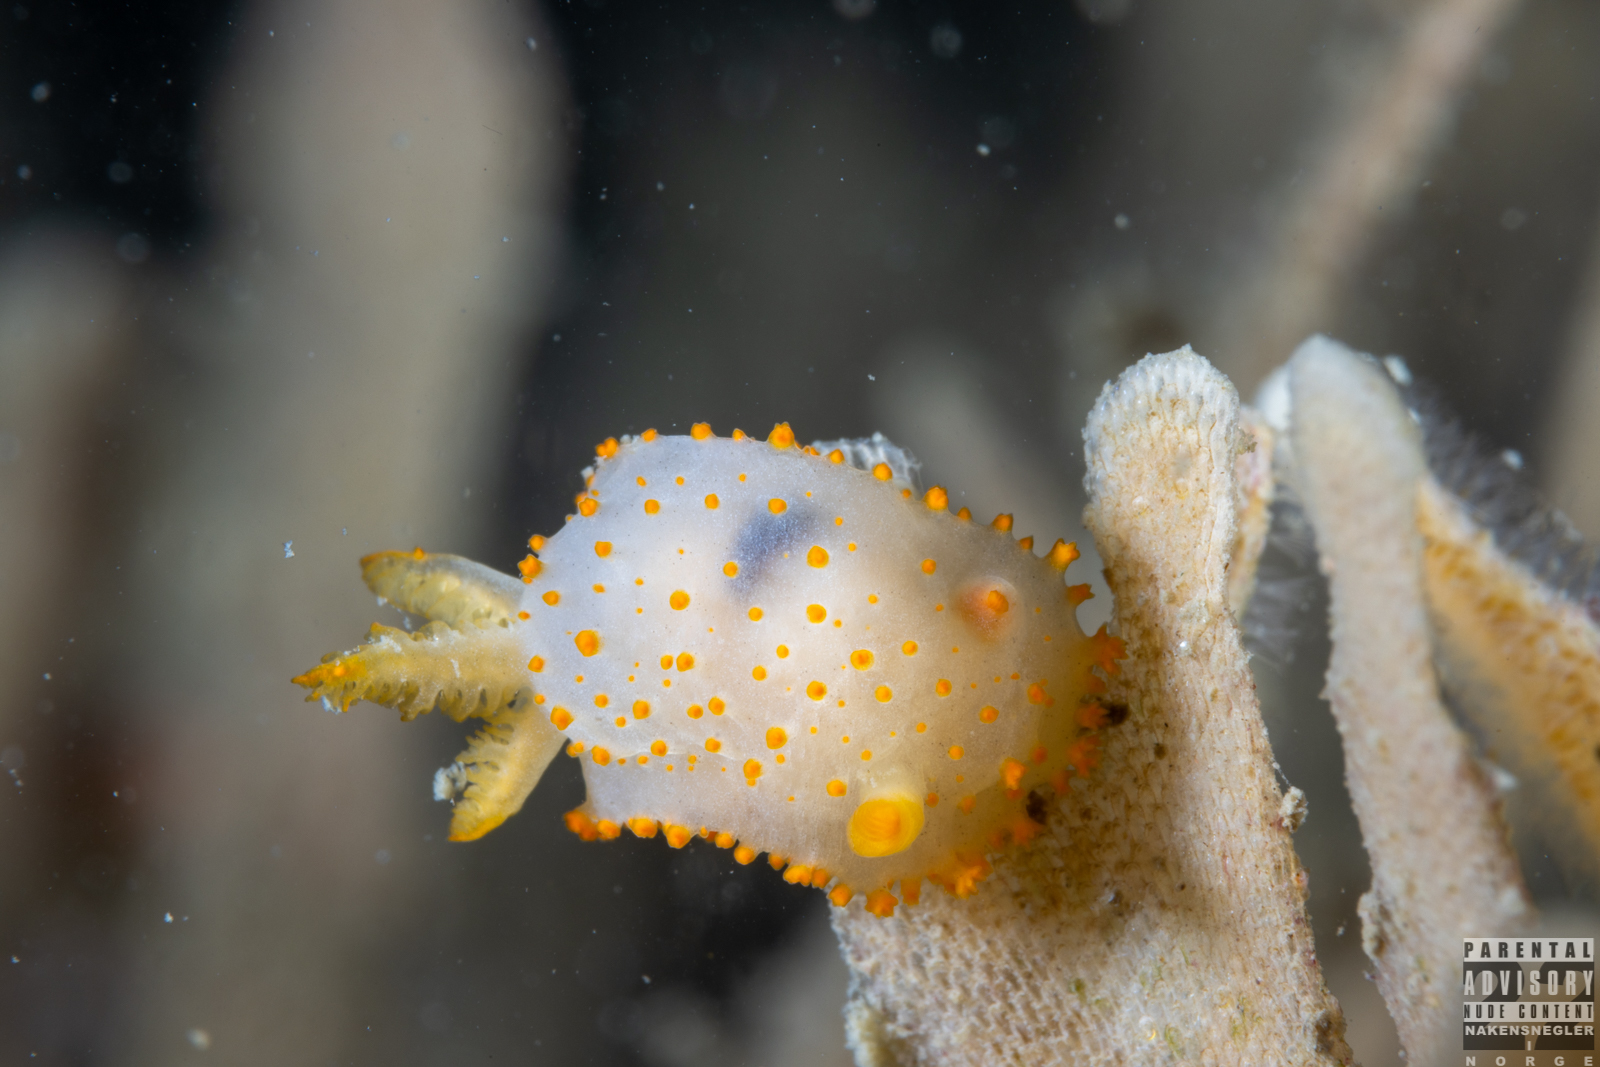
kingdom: Animalia
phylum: Mollusca
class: Gastropoda
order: Nudibranchia
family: Polyceridae
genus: Crimora
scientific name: Crimora papillata
